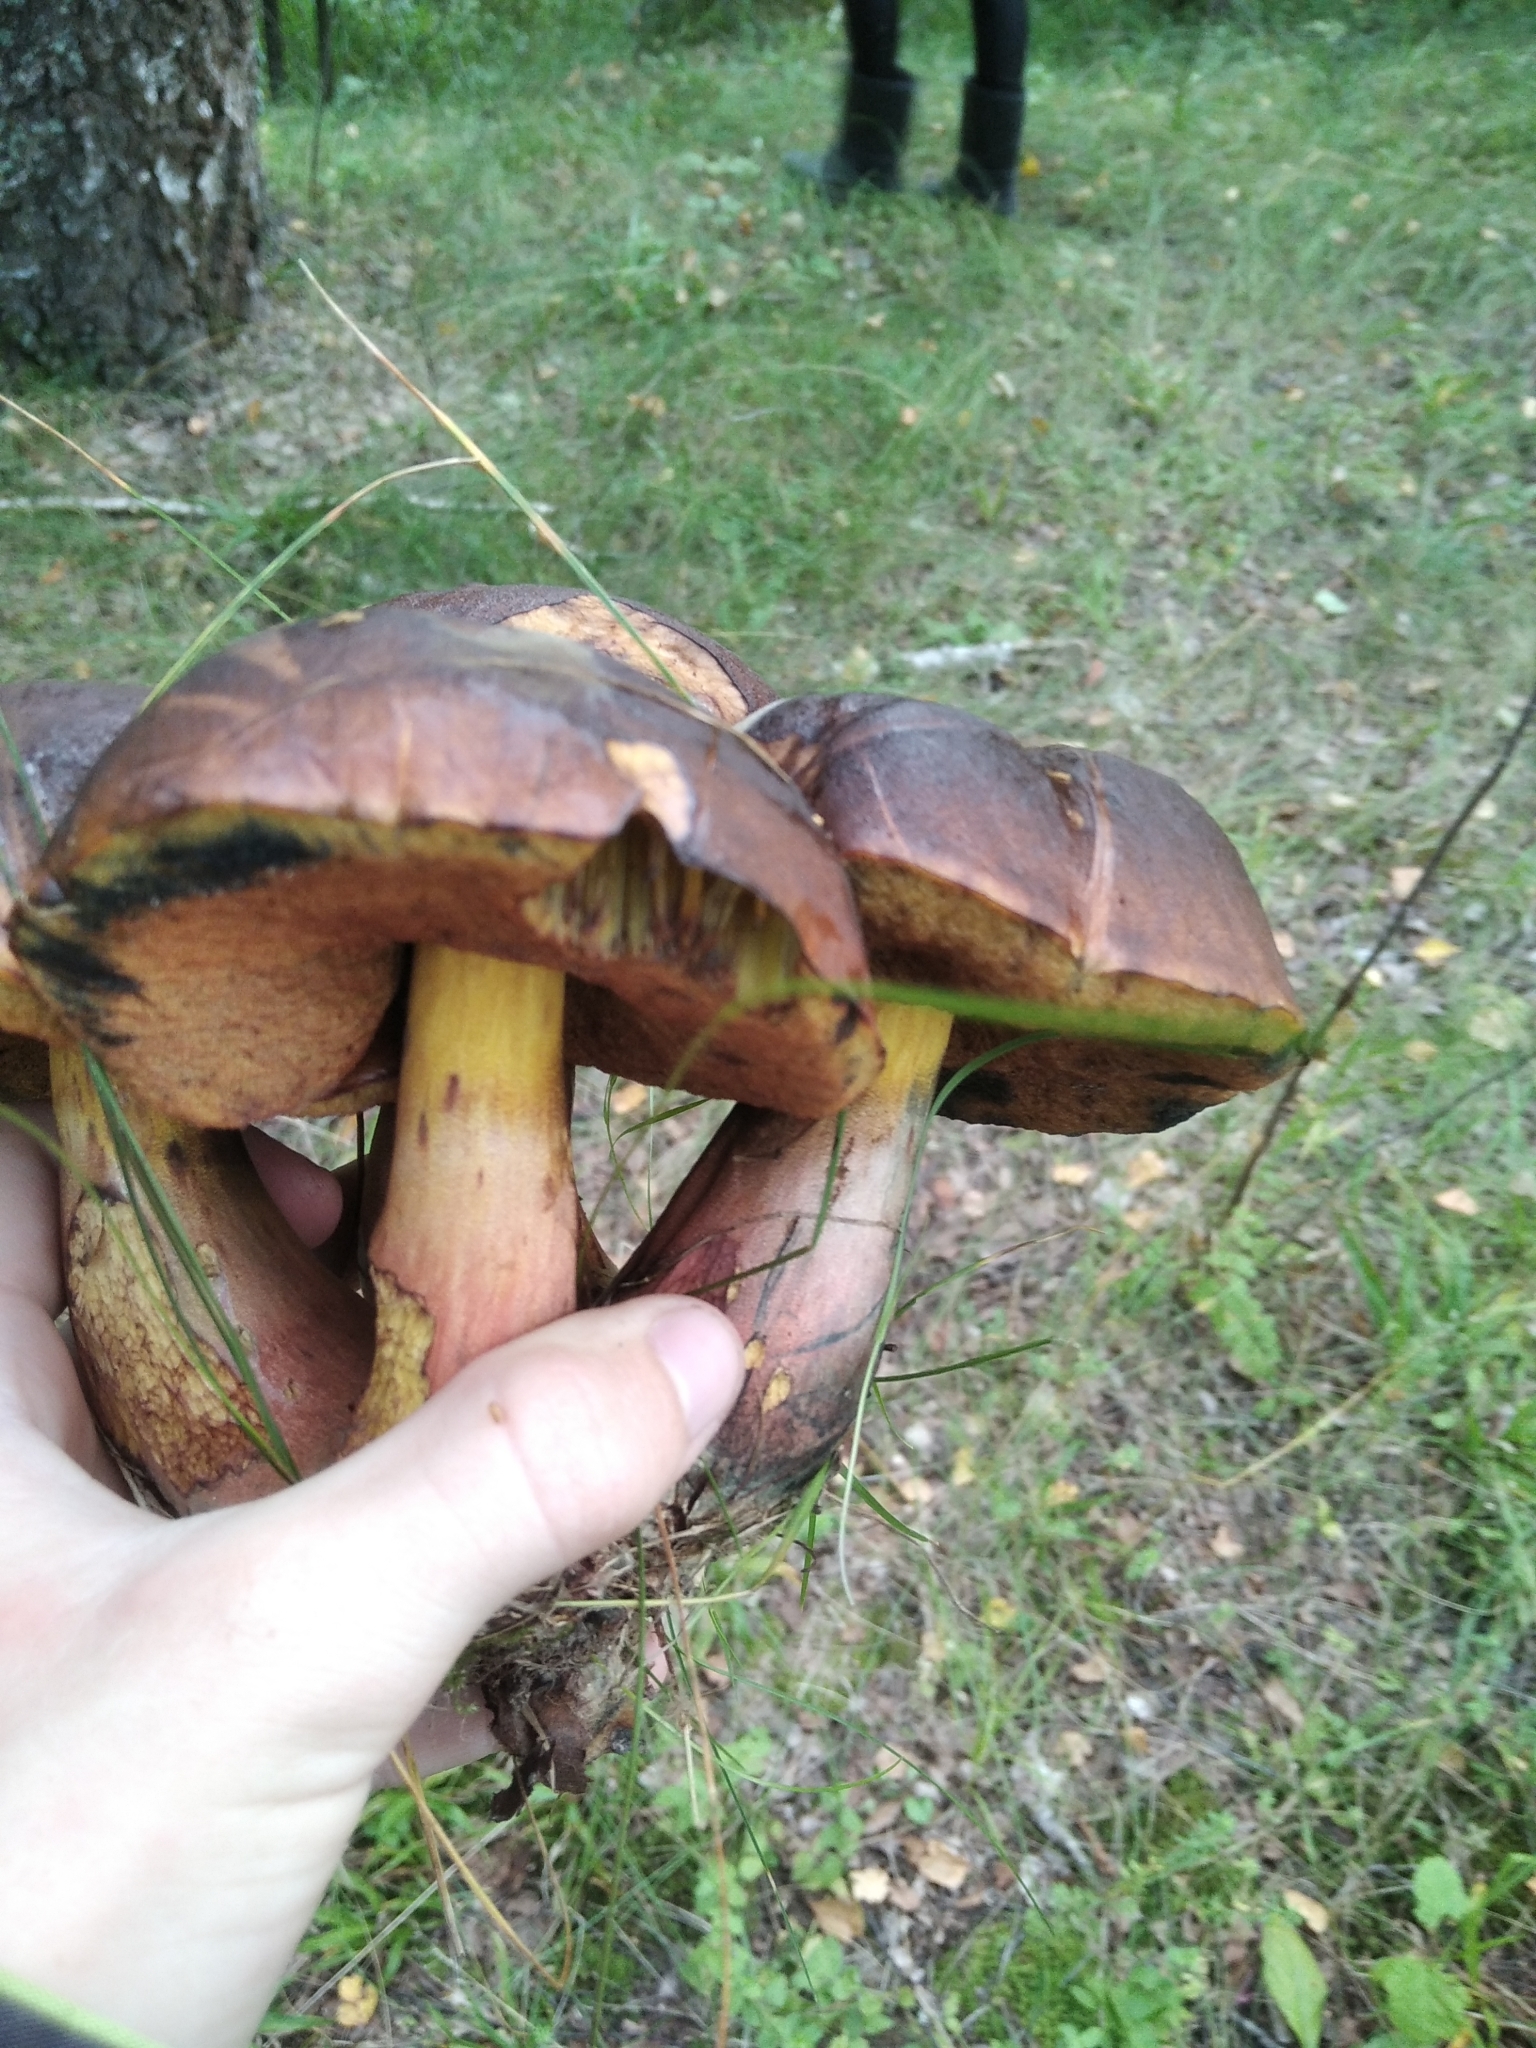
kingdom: Fungi
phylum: Basidiomycota
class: Agaricomycetes
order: Boletales
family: Boletaceae
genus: Neoboletus
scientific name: Neoboletus luridiformis
